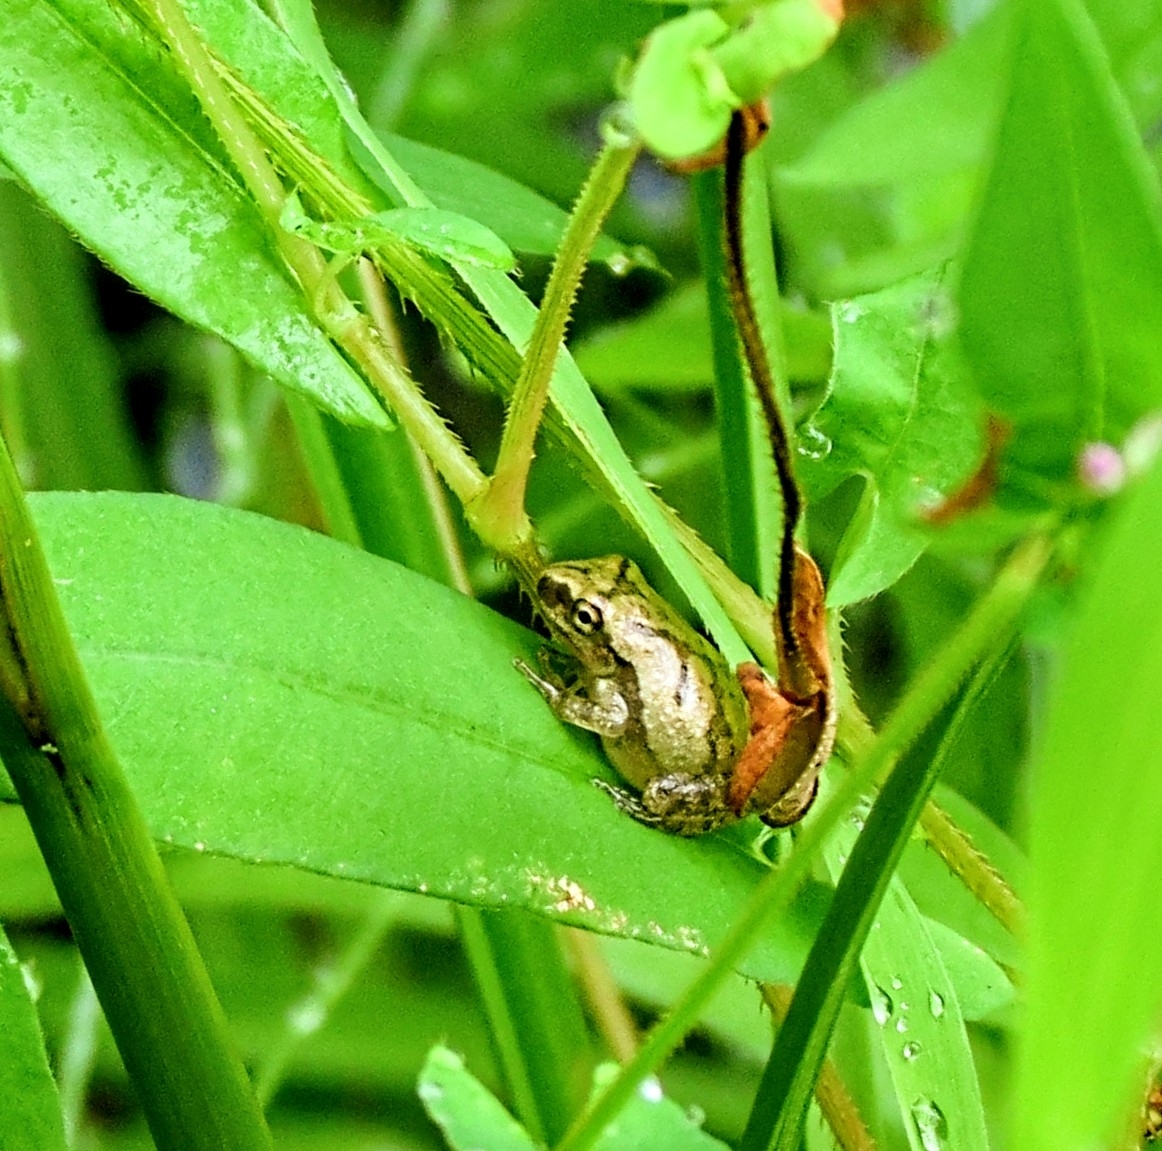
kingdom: Animalia
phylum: Chordata
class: Amphibia
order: Anura
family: Hylidae
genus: Pseudacris
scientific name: Pseudacris crucifer
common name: Spring peeper
